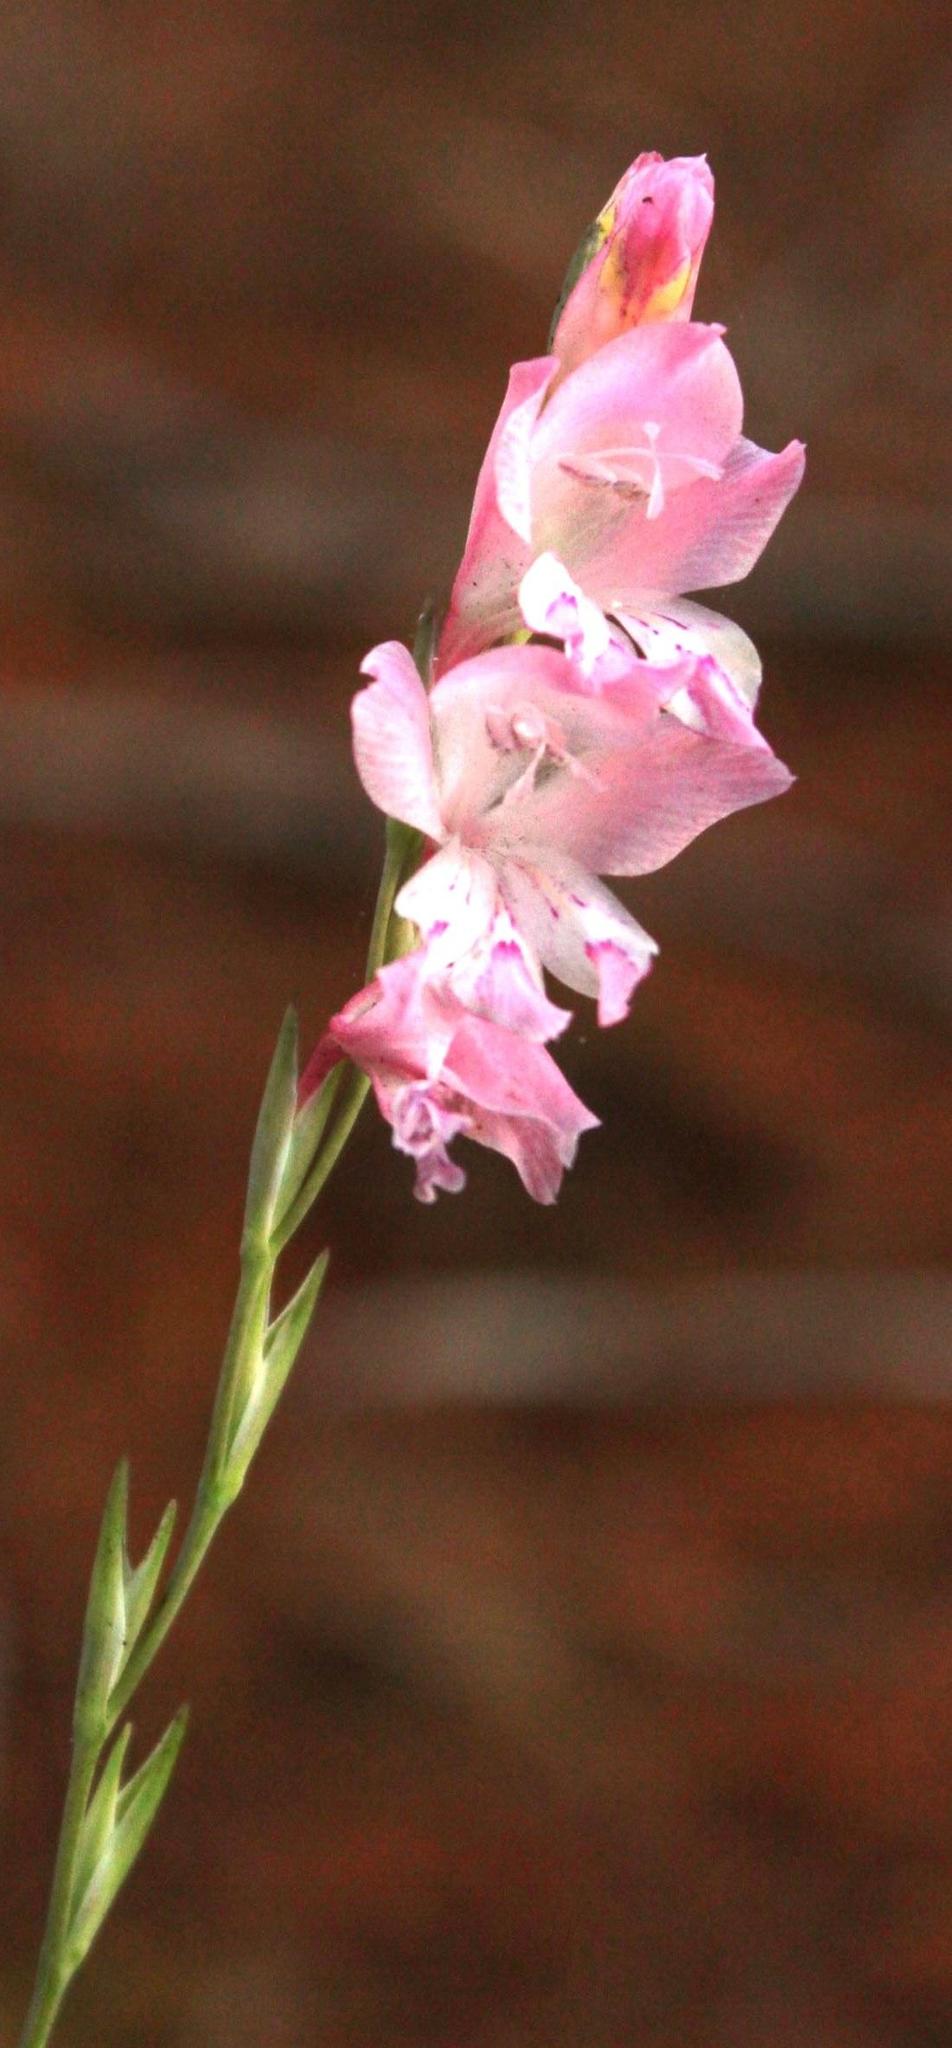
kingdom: Plantae
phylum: Tracheophyta
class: Liliopsida
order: Asparagales
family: Iridaceae
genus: Gladiolus
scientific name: Gladiolus brevifolius
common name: March pypie
